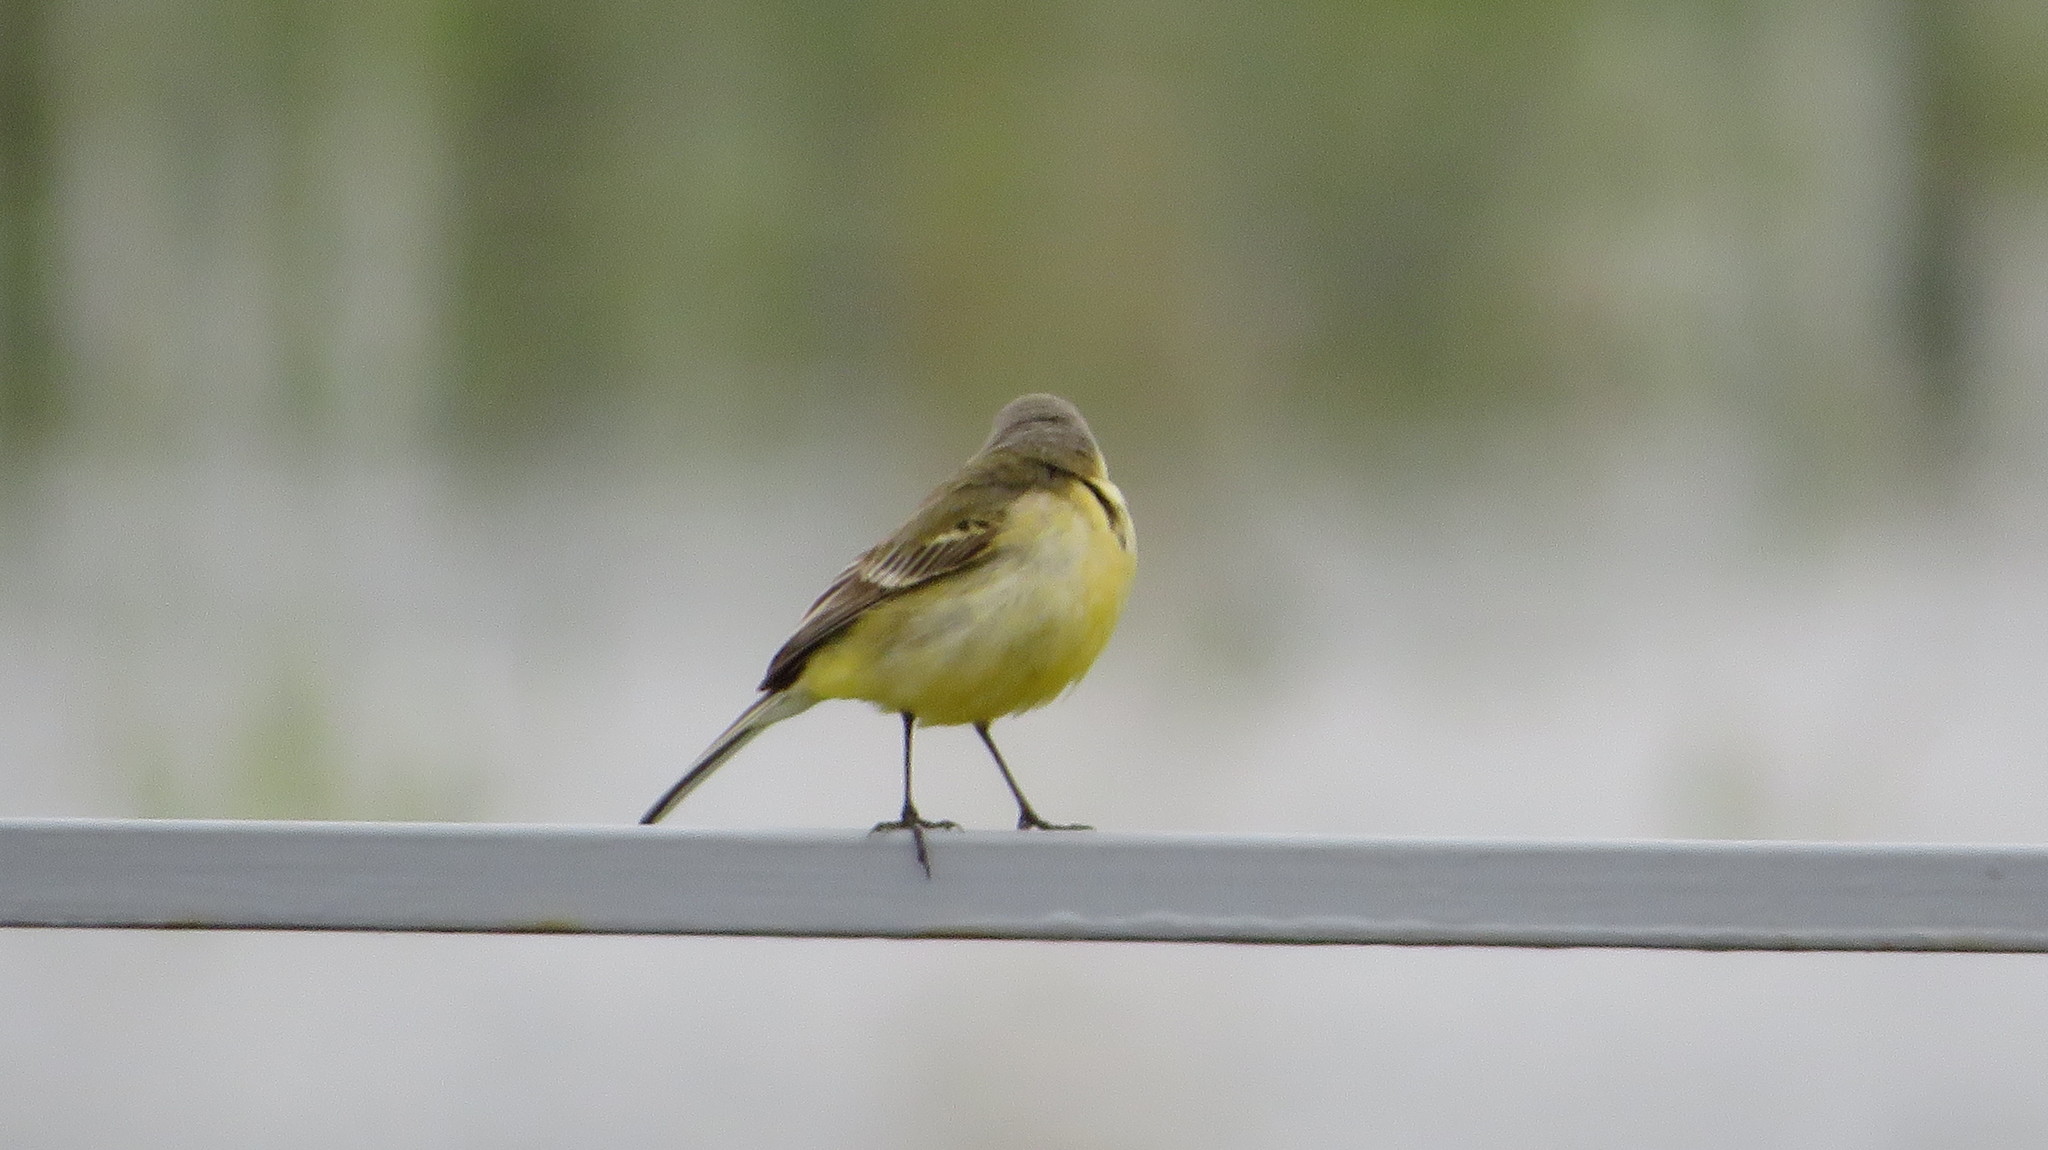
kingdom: Animalia
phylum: Chordata
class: Aves
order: Passeriformes
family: Motacillidae
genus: Motacilla
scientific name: Motacilla flava
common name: Western yellow wagtail
